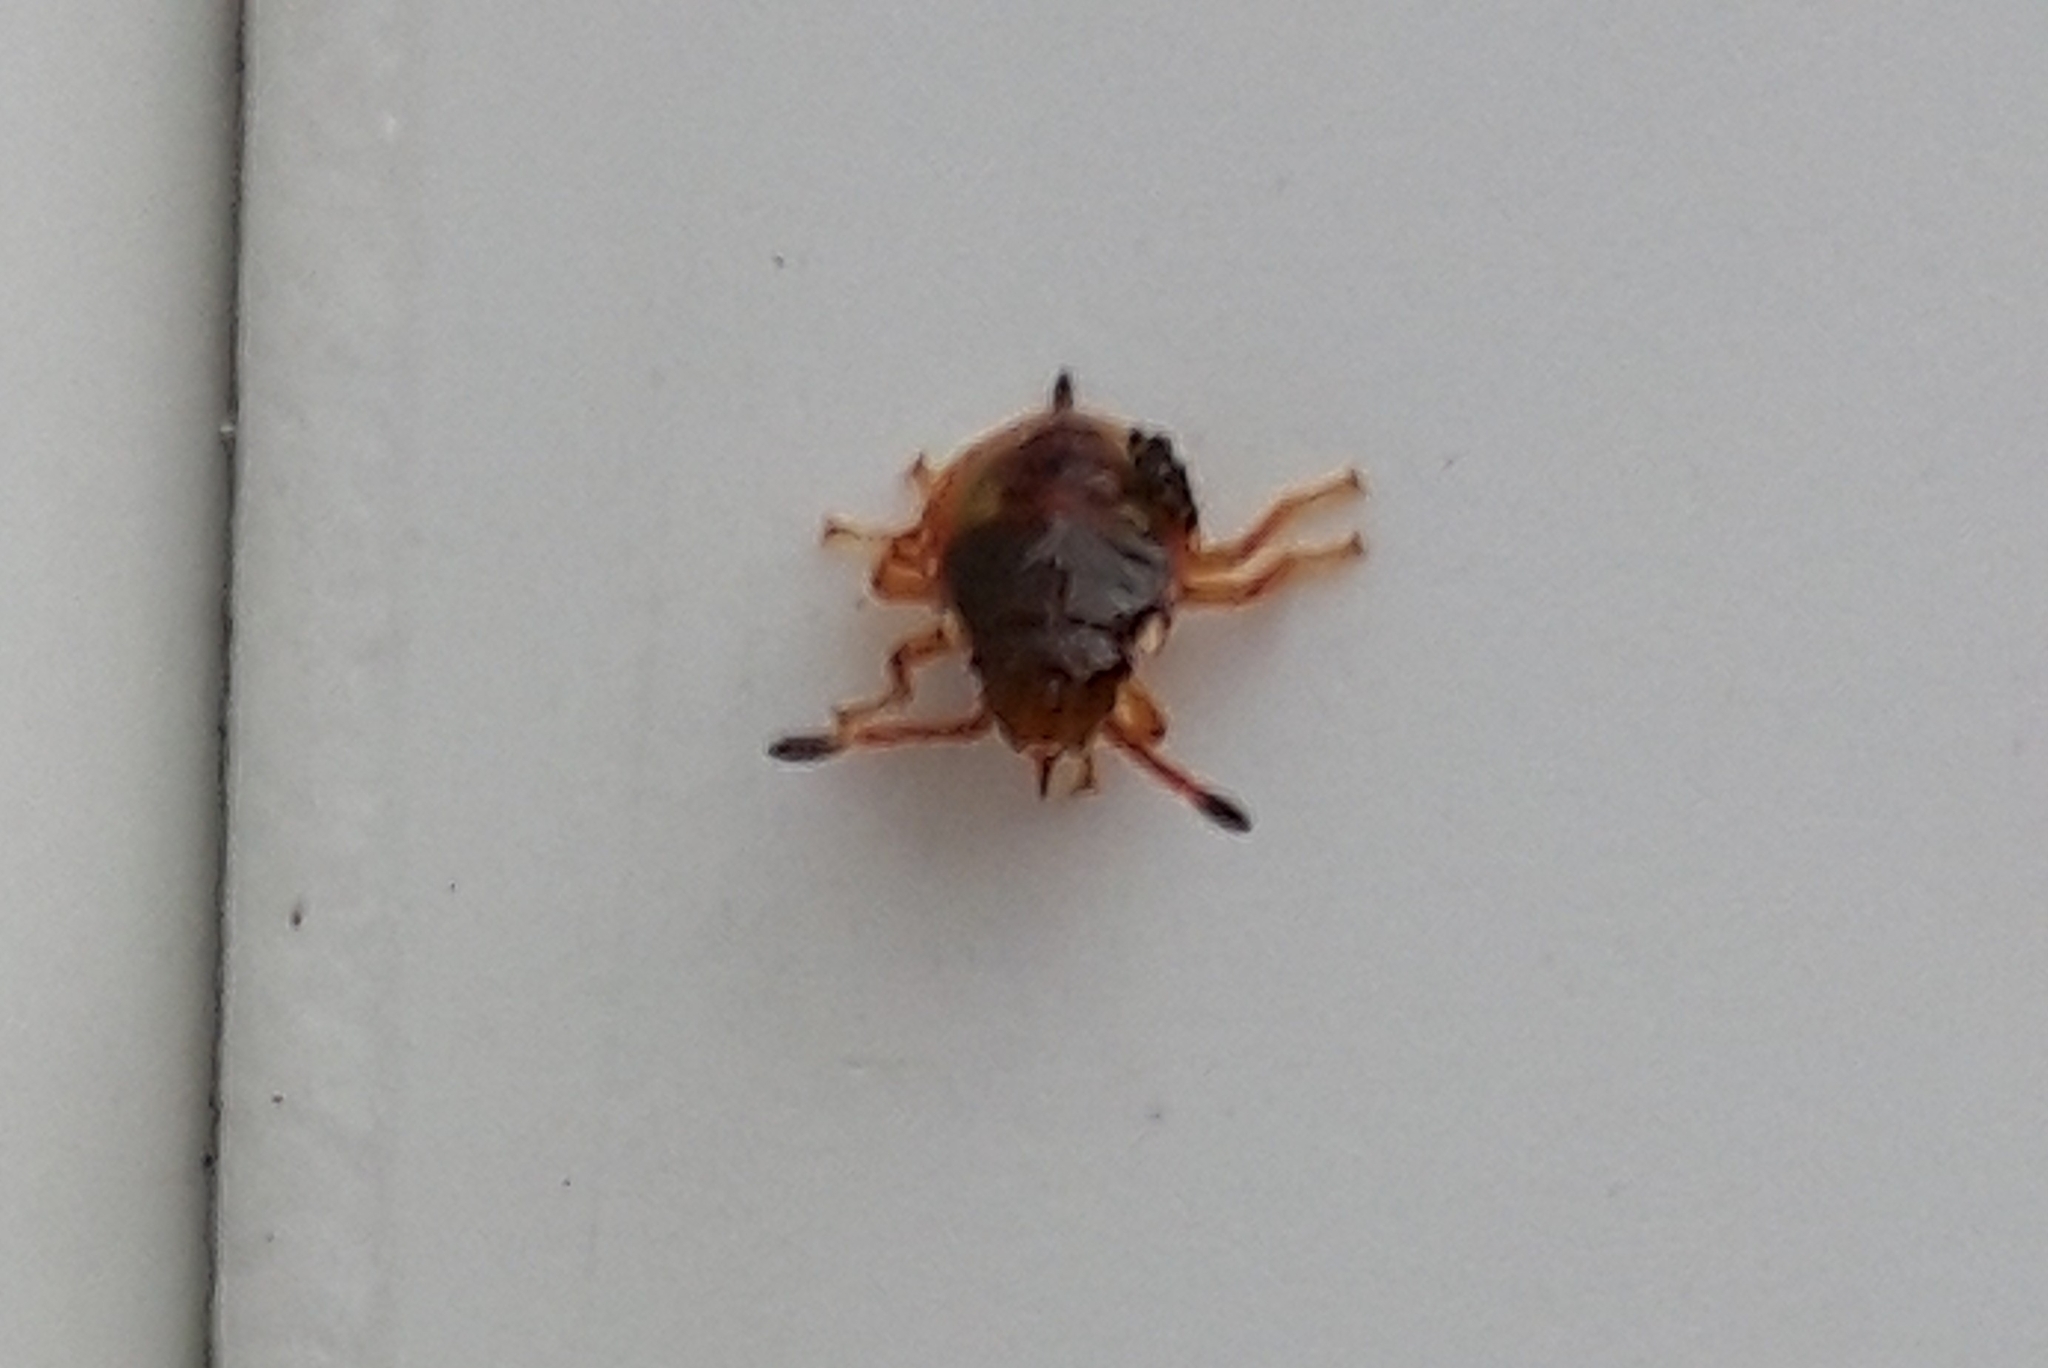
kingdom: Animalia
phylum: Arthropoda
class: Insecta
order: Hemiptera
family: Acanthosomatidae
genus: Acanthosoma
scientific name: Acanthosoma haemorrhoidale
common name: Hawthorn shieldbug
